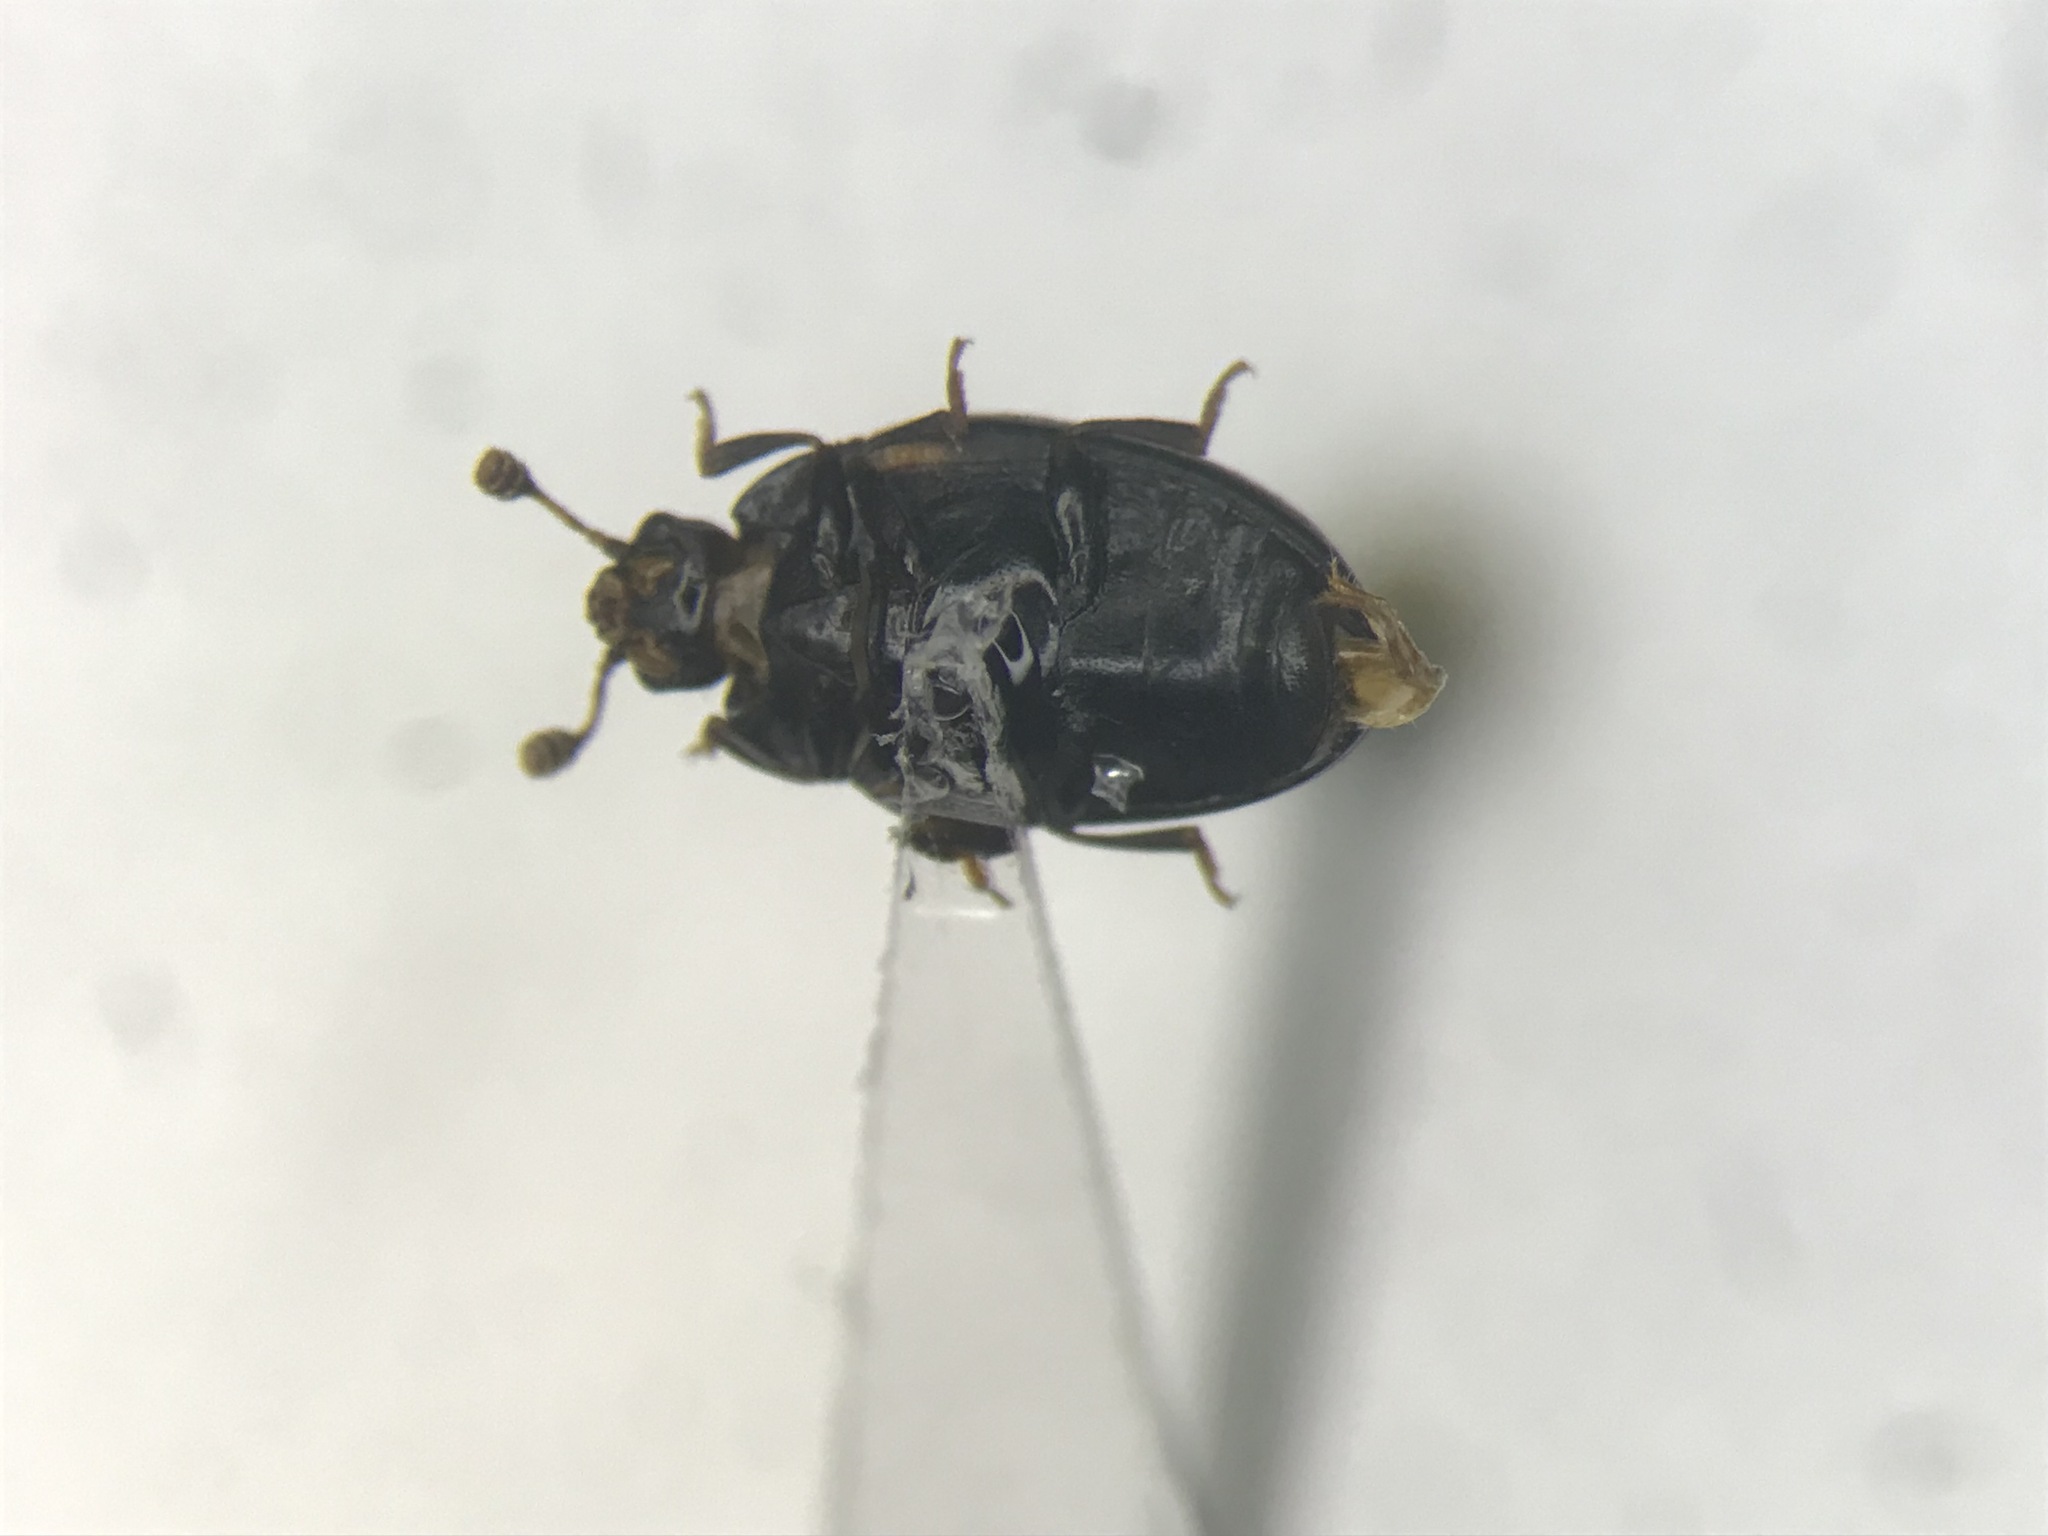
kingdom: Animalia
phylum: Arthropoda
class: Insecta
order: Coleoptera
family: Erotylidae
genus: Tritoma
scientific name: Tritoma pulchra
